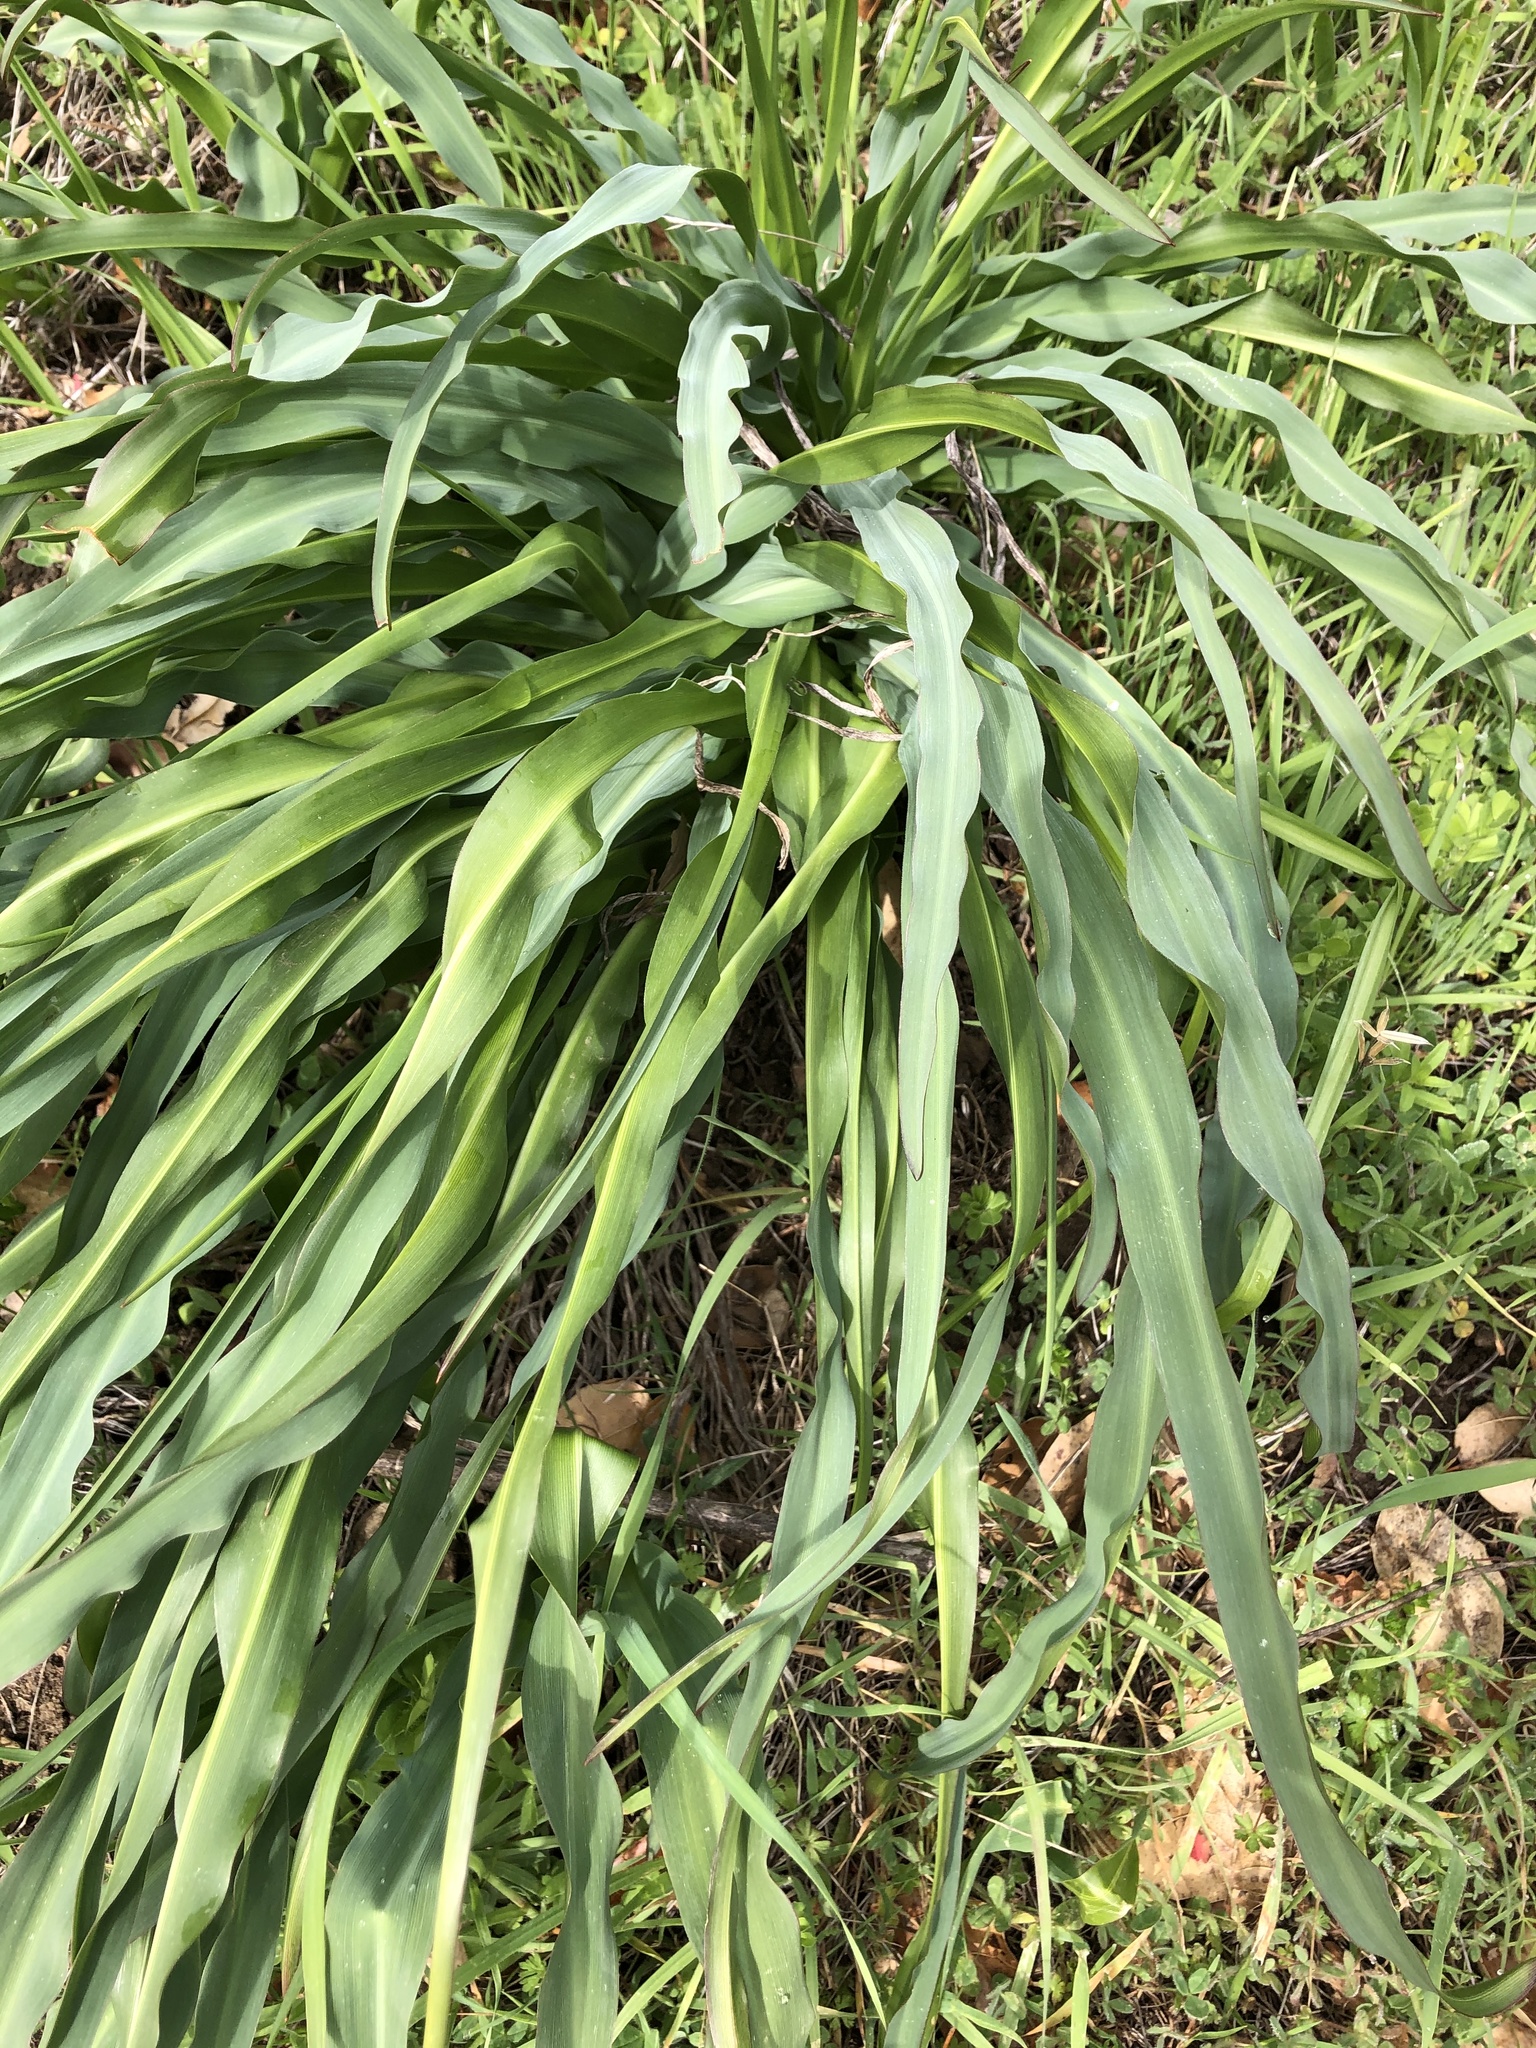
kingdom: Plantae
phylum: Tracheophyta
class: Liliopsida
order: Asparagales
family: Asparagaceae
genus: Chlorogalum
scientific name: Chlorogalum pomeridianum
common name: Amole
